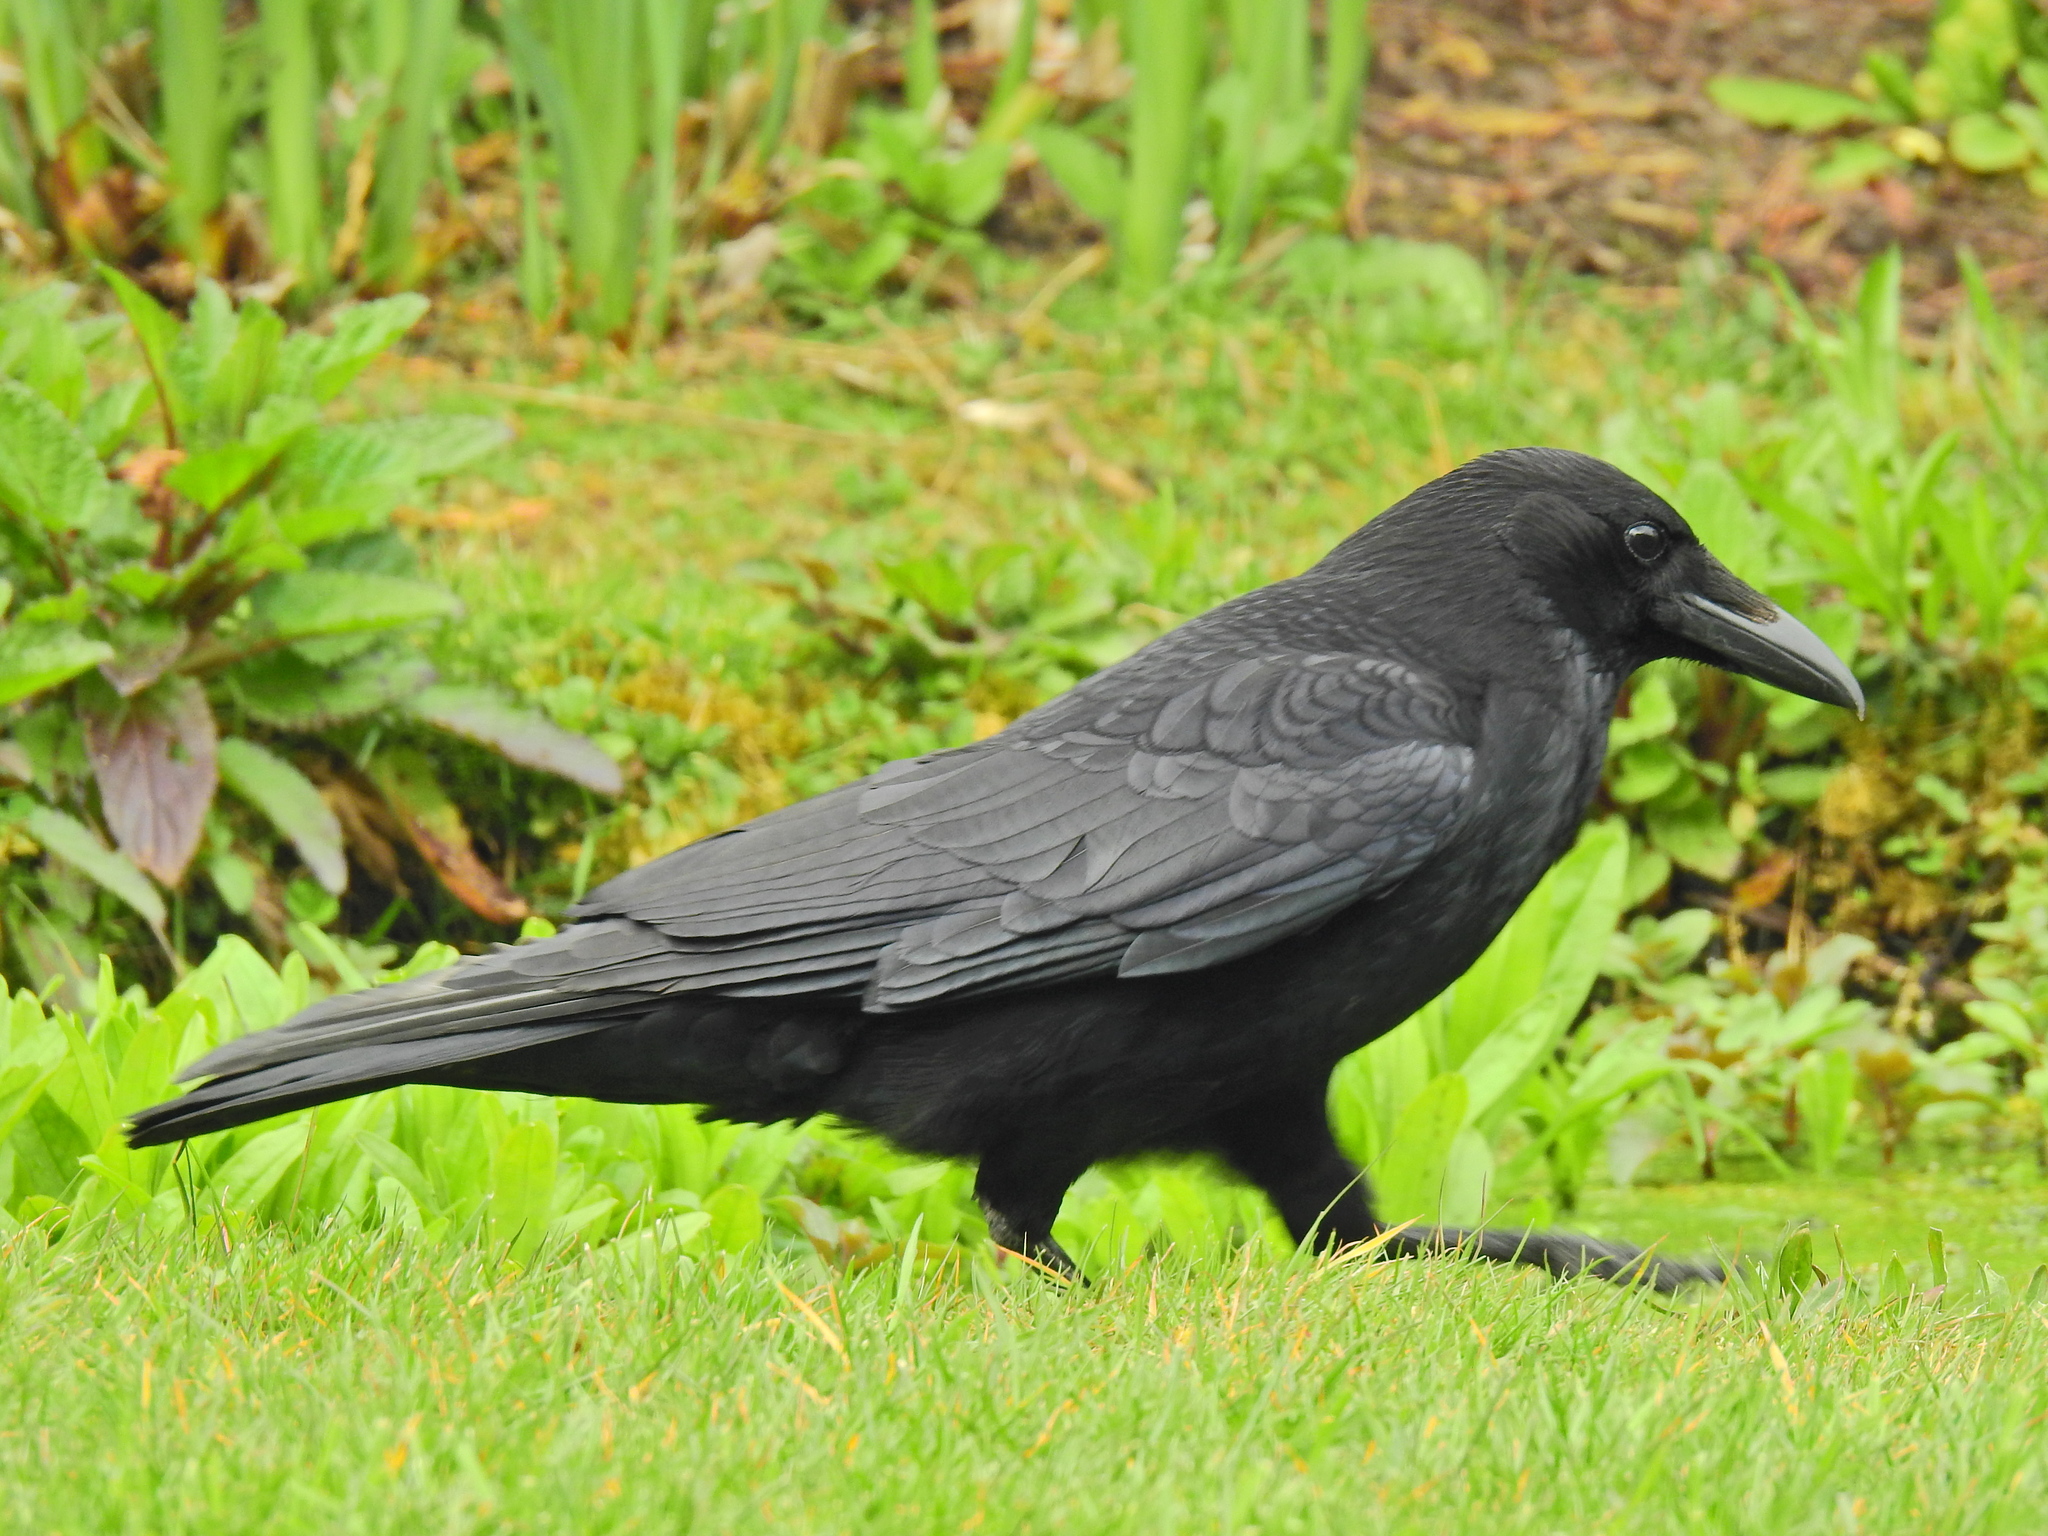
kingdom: Animalia
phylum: Chordata
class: Aves
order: Passeriformes
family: Corvidae
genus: Corvus
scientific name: Corvus corone
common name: Carrion crow
